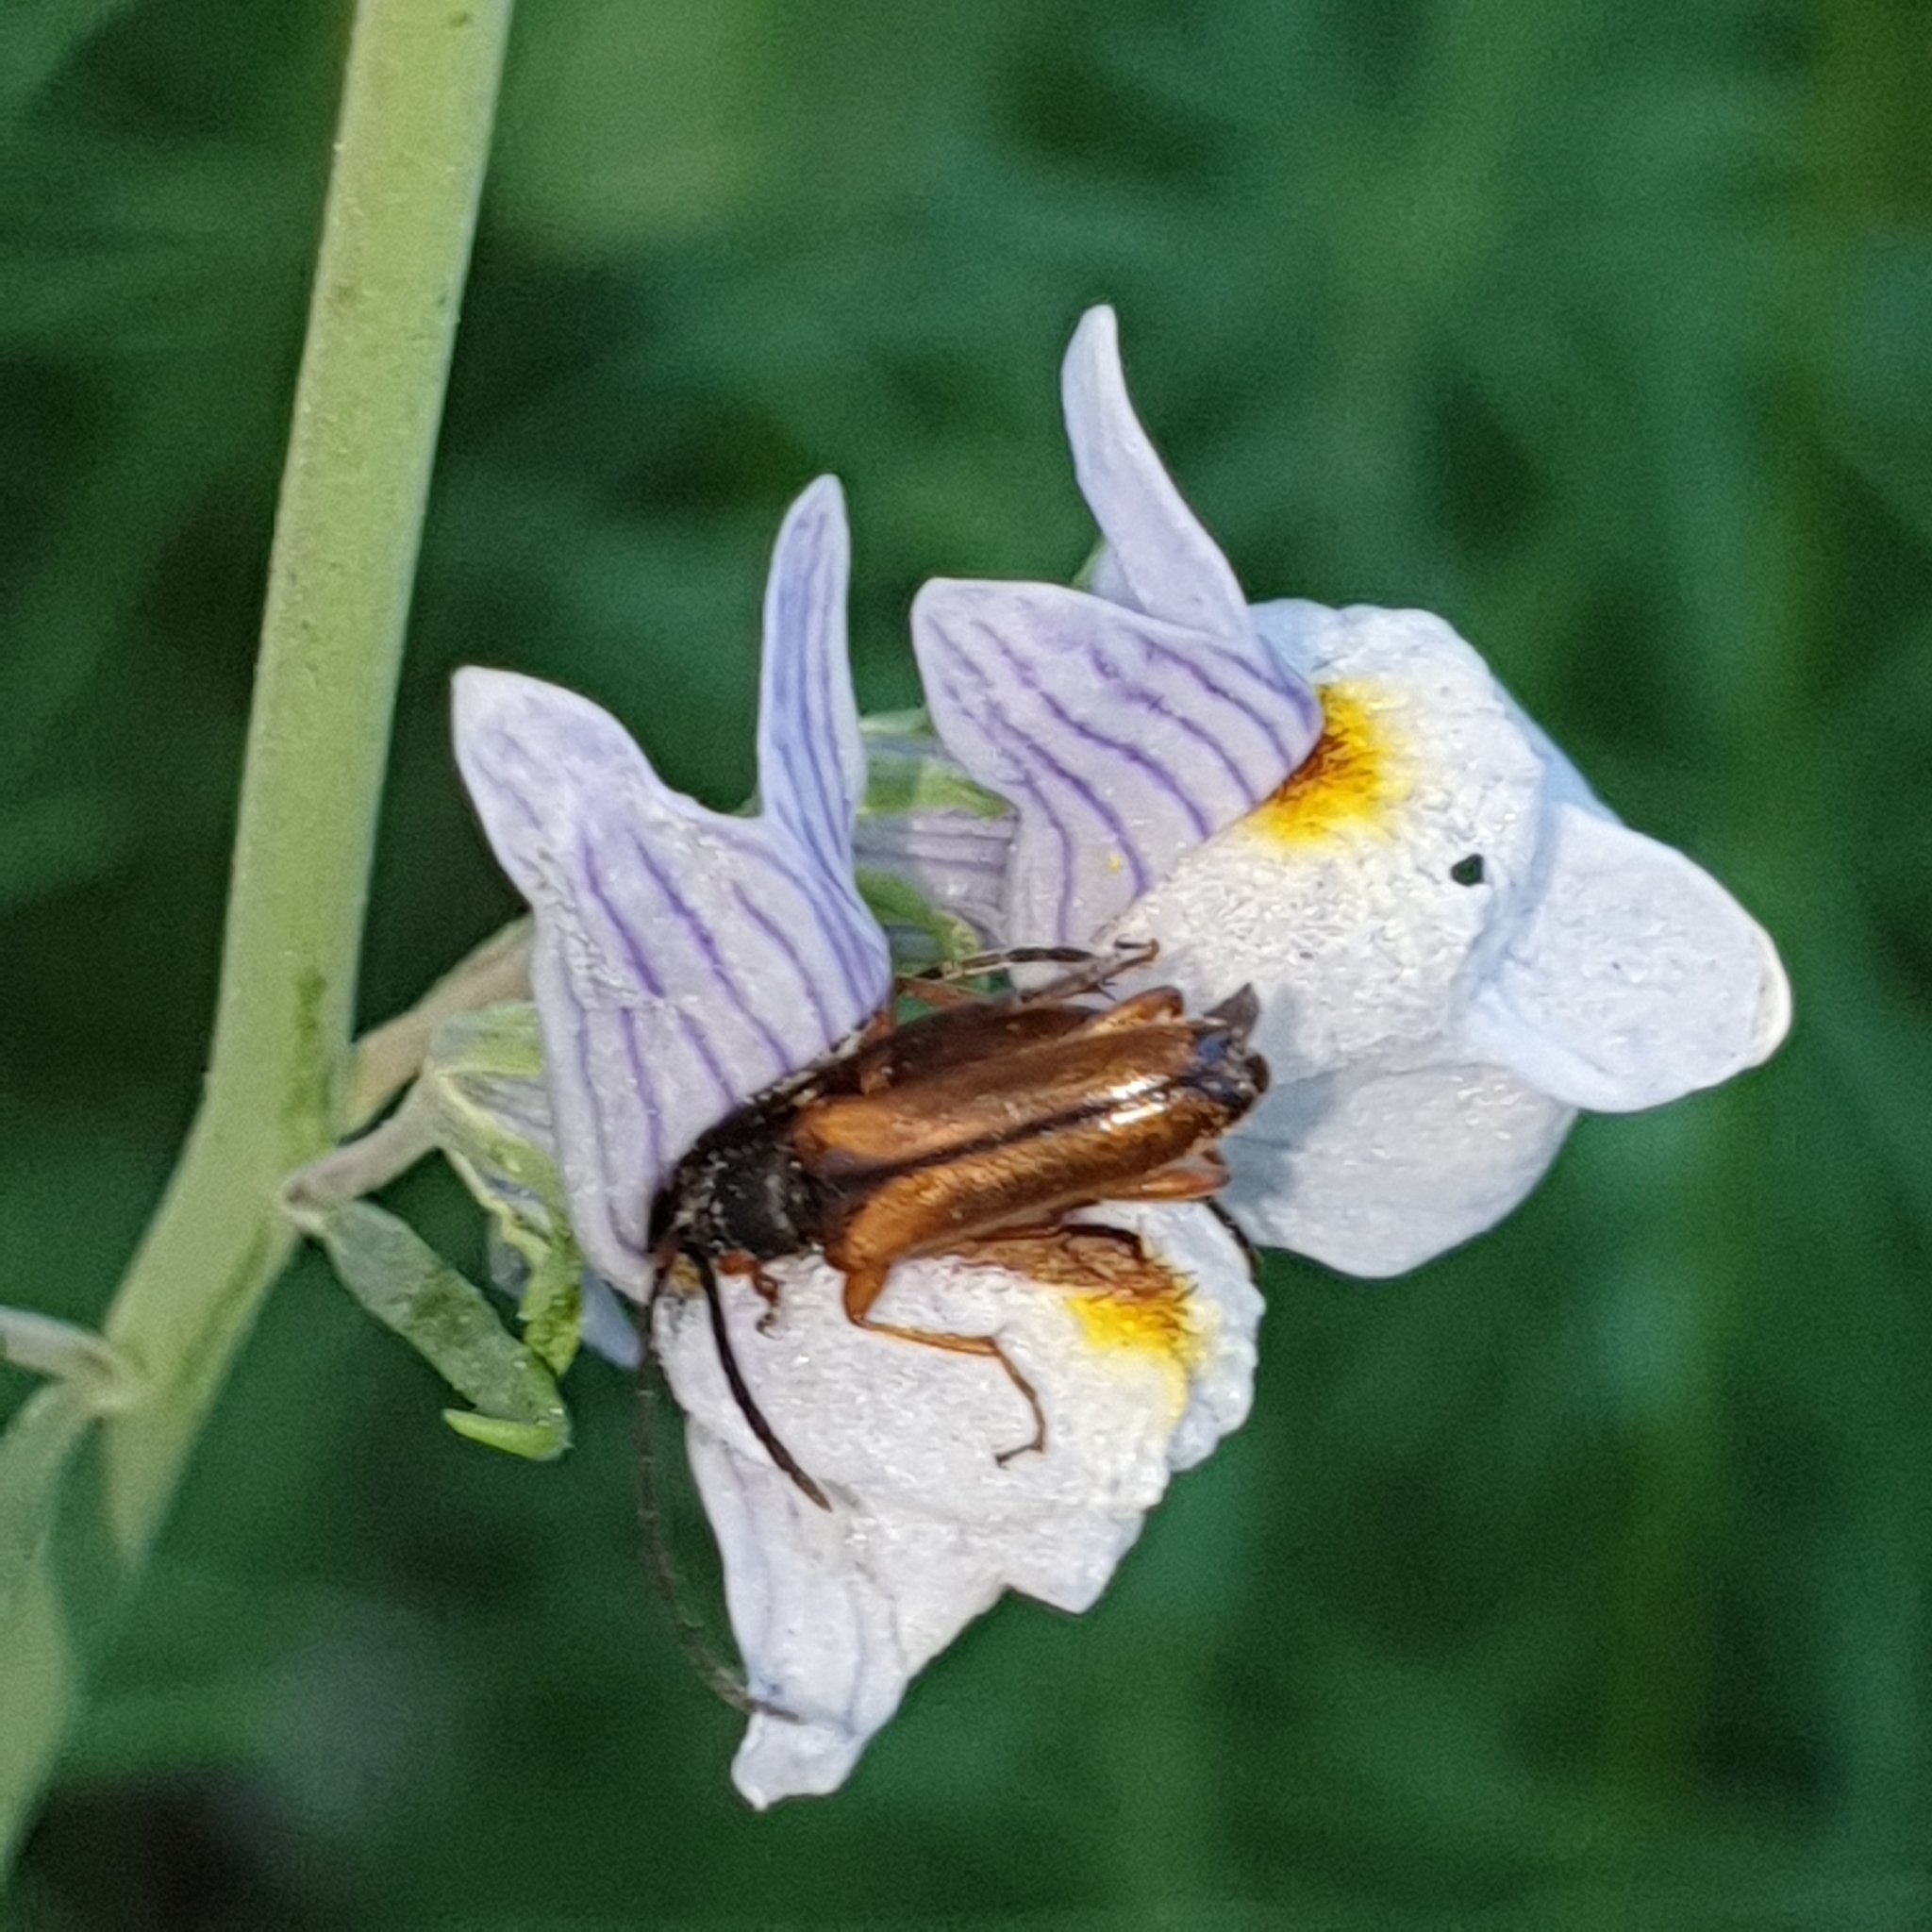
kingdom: Animalia
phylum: Arthropoda
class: Insecta
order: Coleoptera
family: Cerambycidae
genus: Alosterna
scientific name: Alosterna tabacicolor
